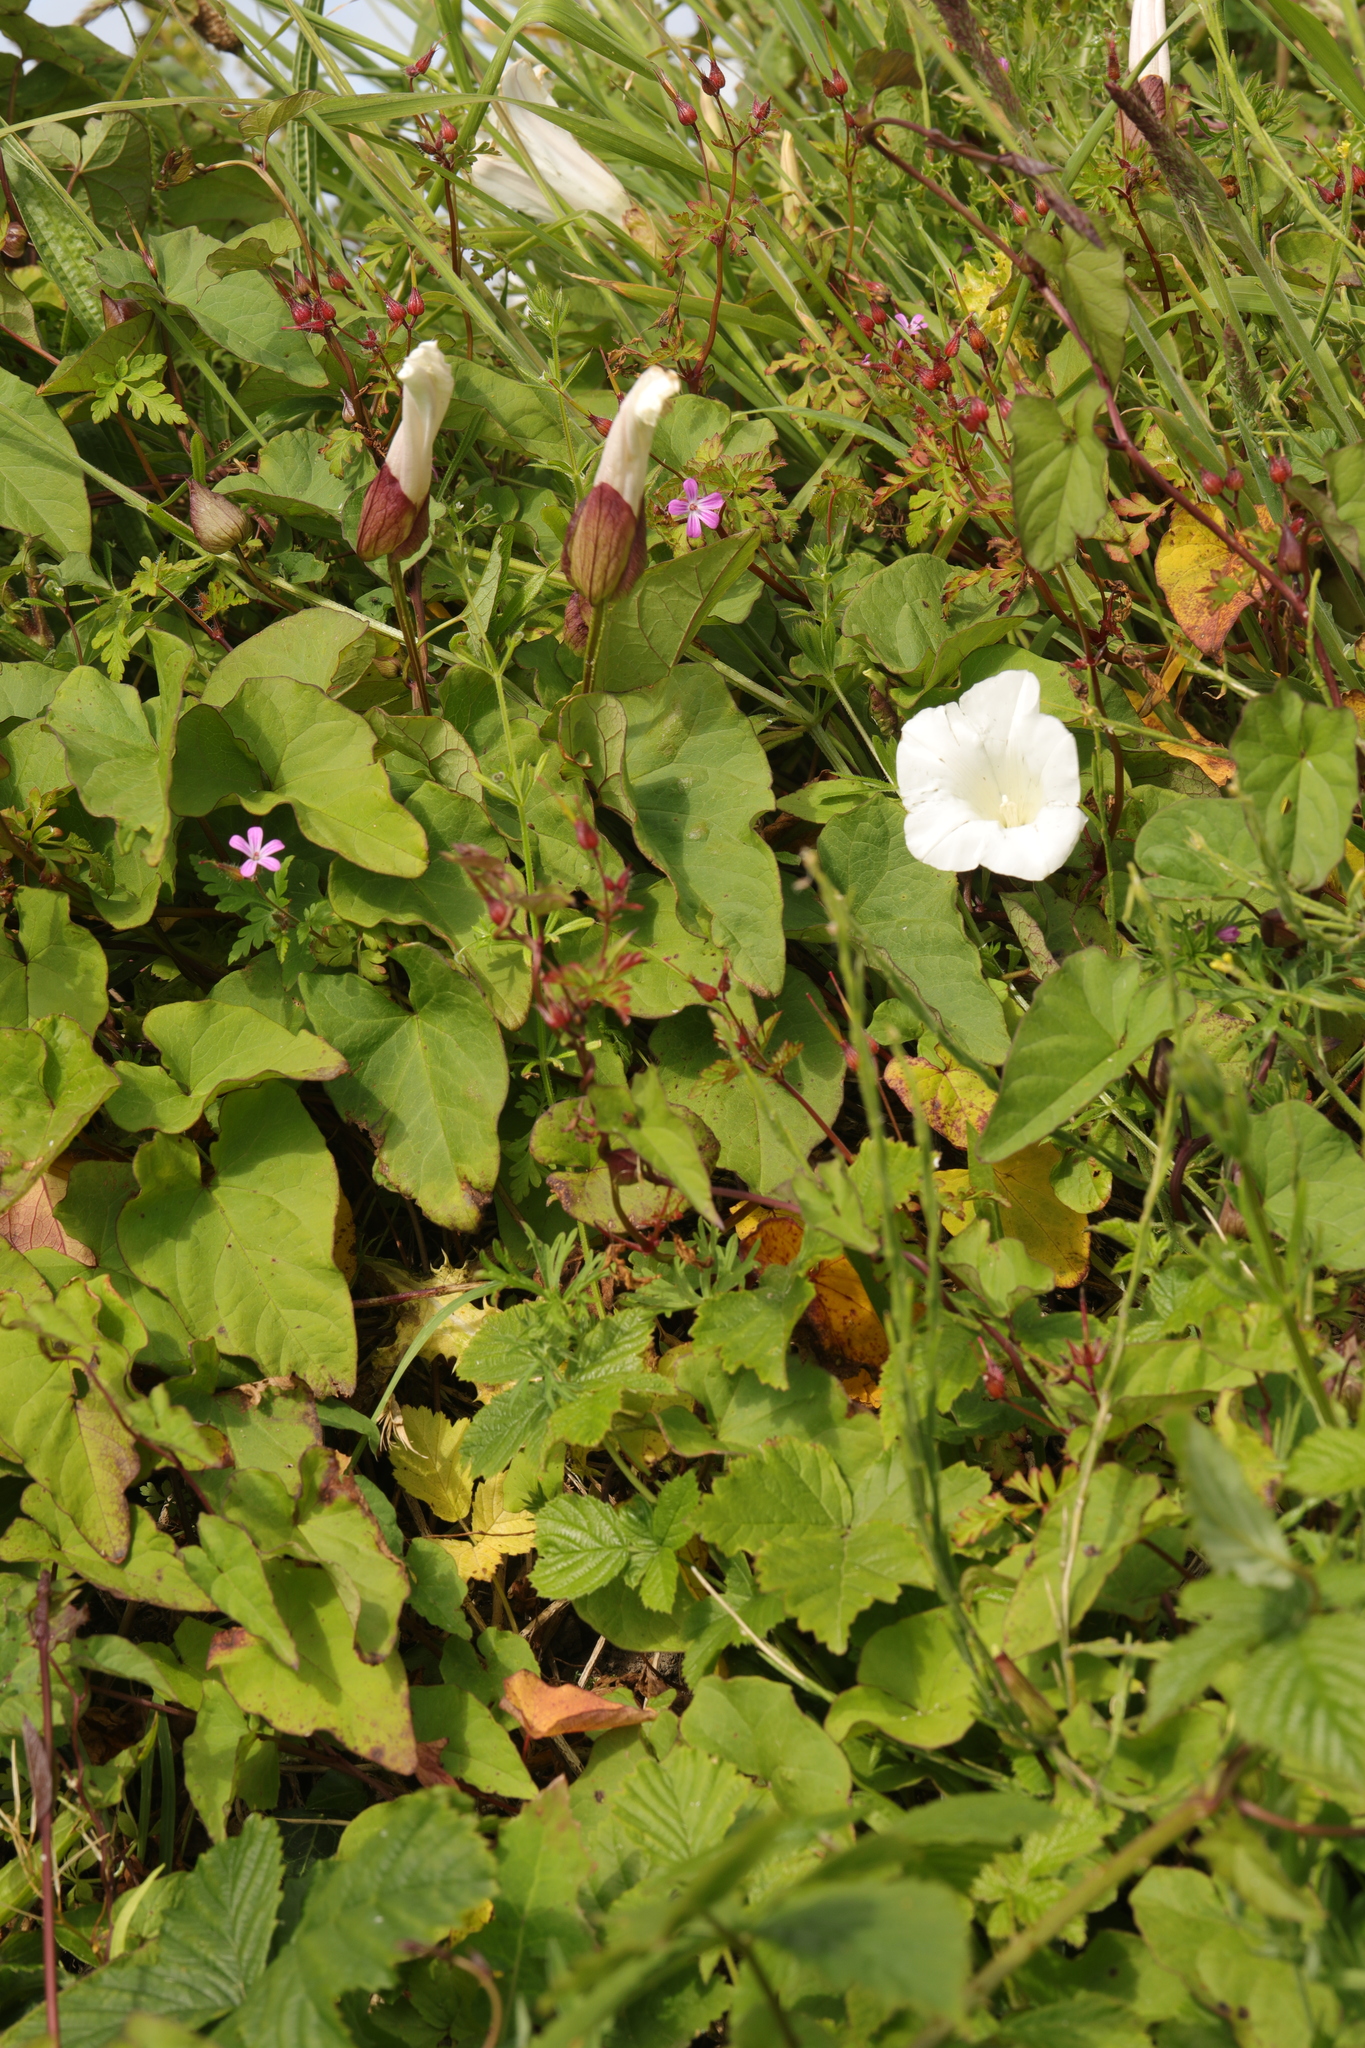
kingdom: Plantae
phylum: Tracheophyta
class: Magnoliopsida
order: Solanales
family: Convolvulaceae
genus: Calystegia
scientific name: Calystegia silvatica
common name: Large bindweed
